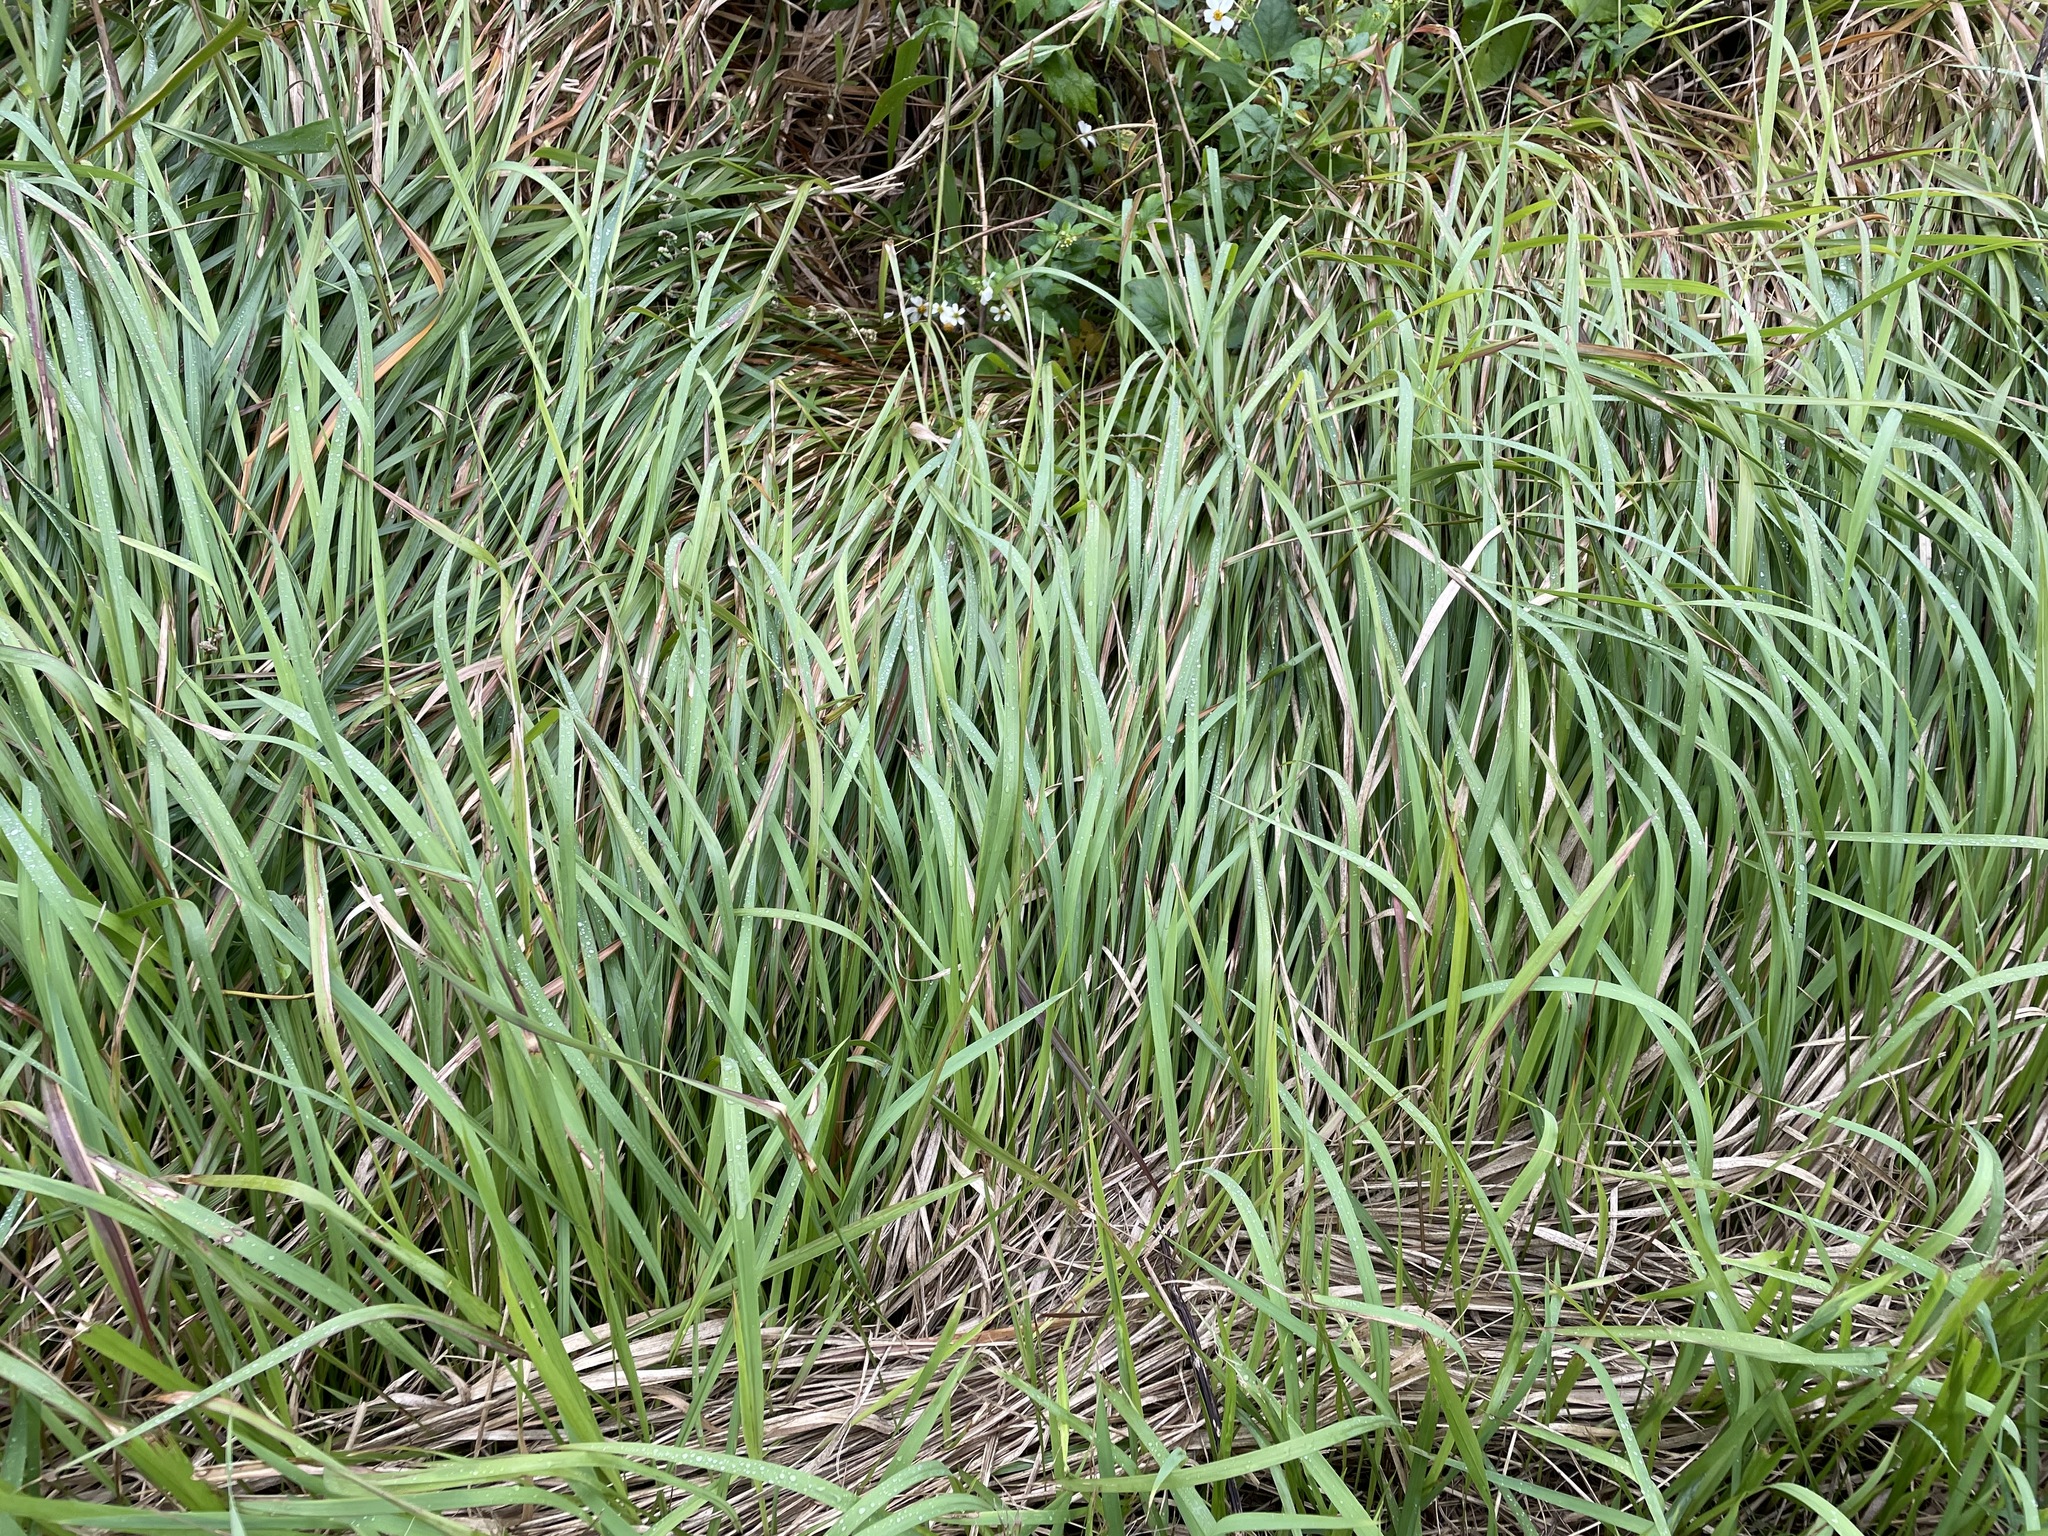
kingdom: Plantae
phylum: Tracheophyta
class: Liliopsida
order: Poales
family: Poaceae
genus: Imperata
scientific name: Imperata cylindrica
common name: Cogongrass
